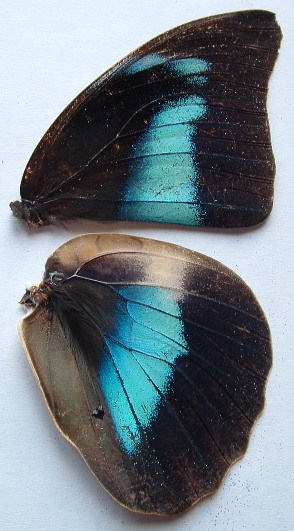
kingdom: Animalia
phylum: Arthropoda
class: Insecta
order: Lepidoptera
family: Nymphalidae
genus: Prepona
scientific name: Prepona Archaeoprepona demophoon
